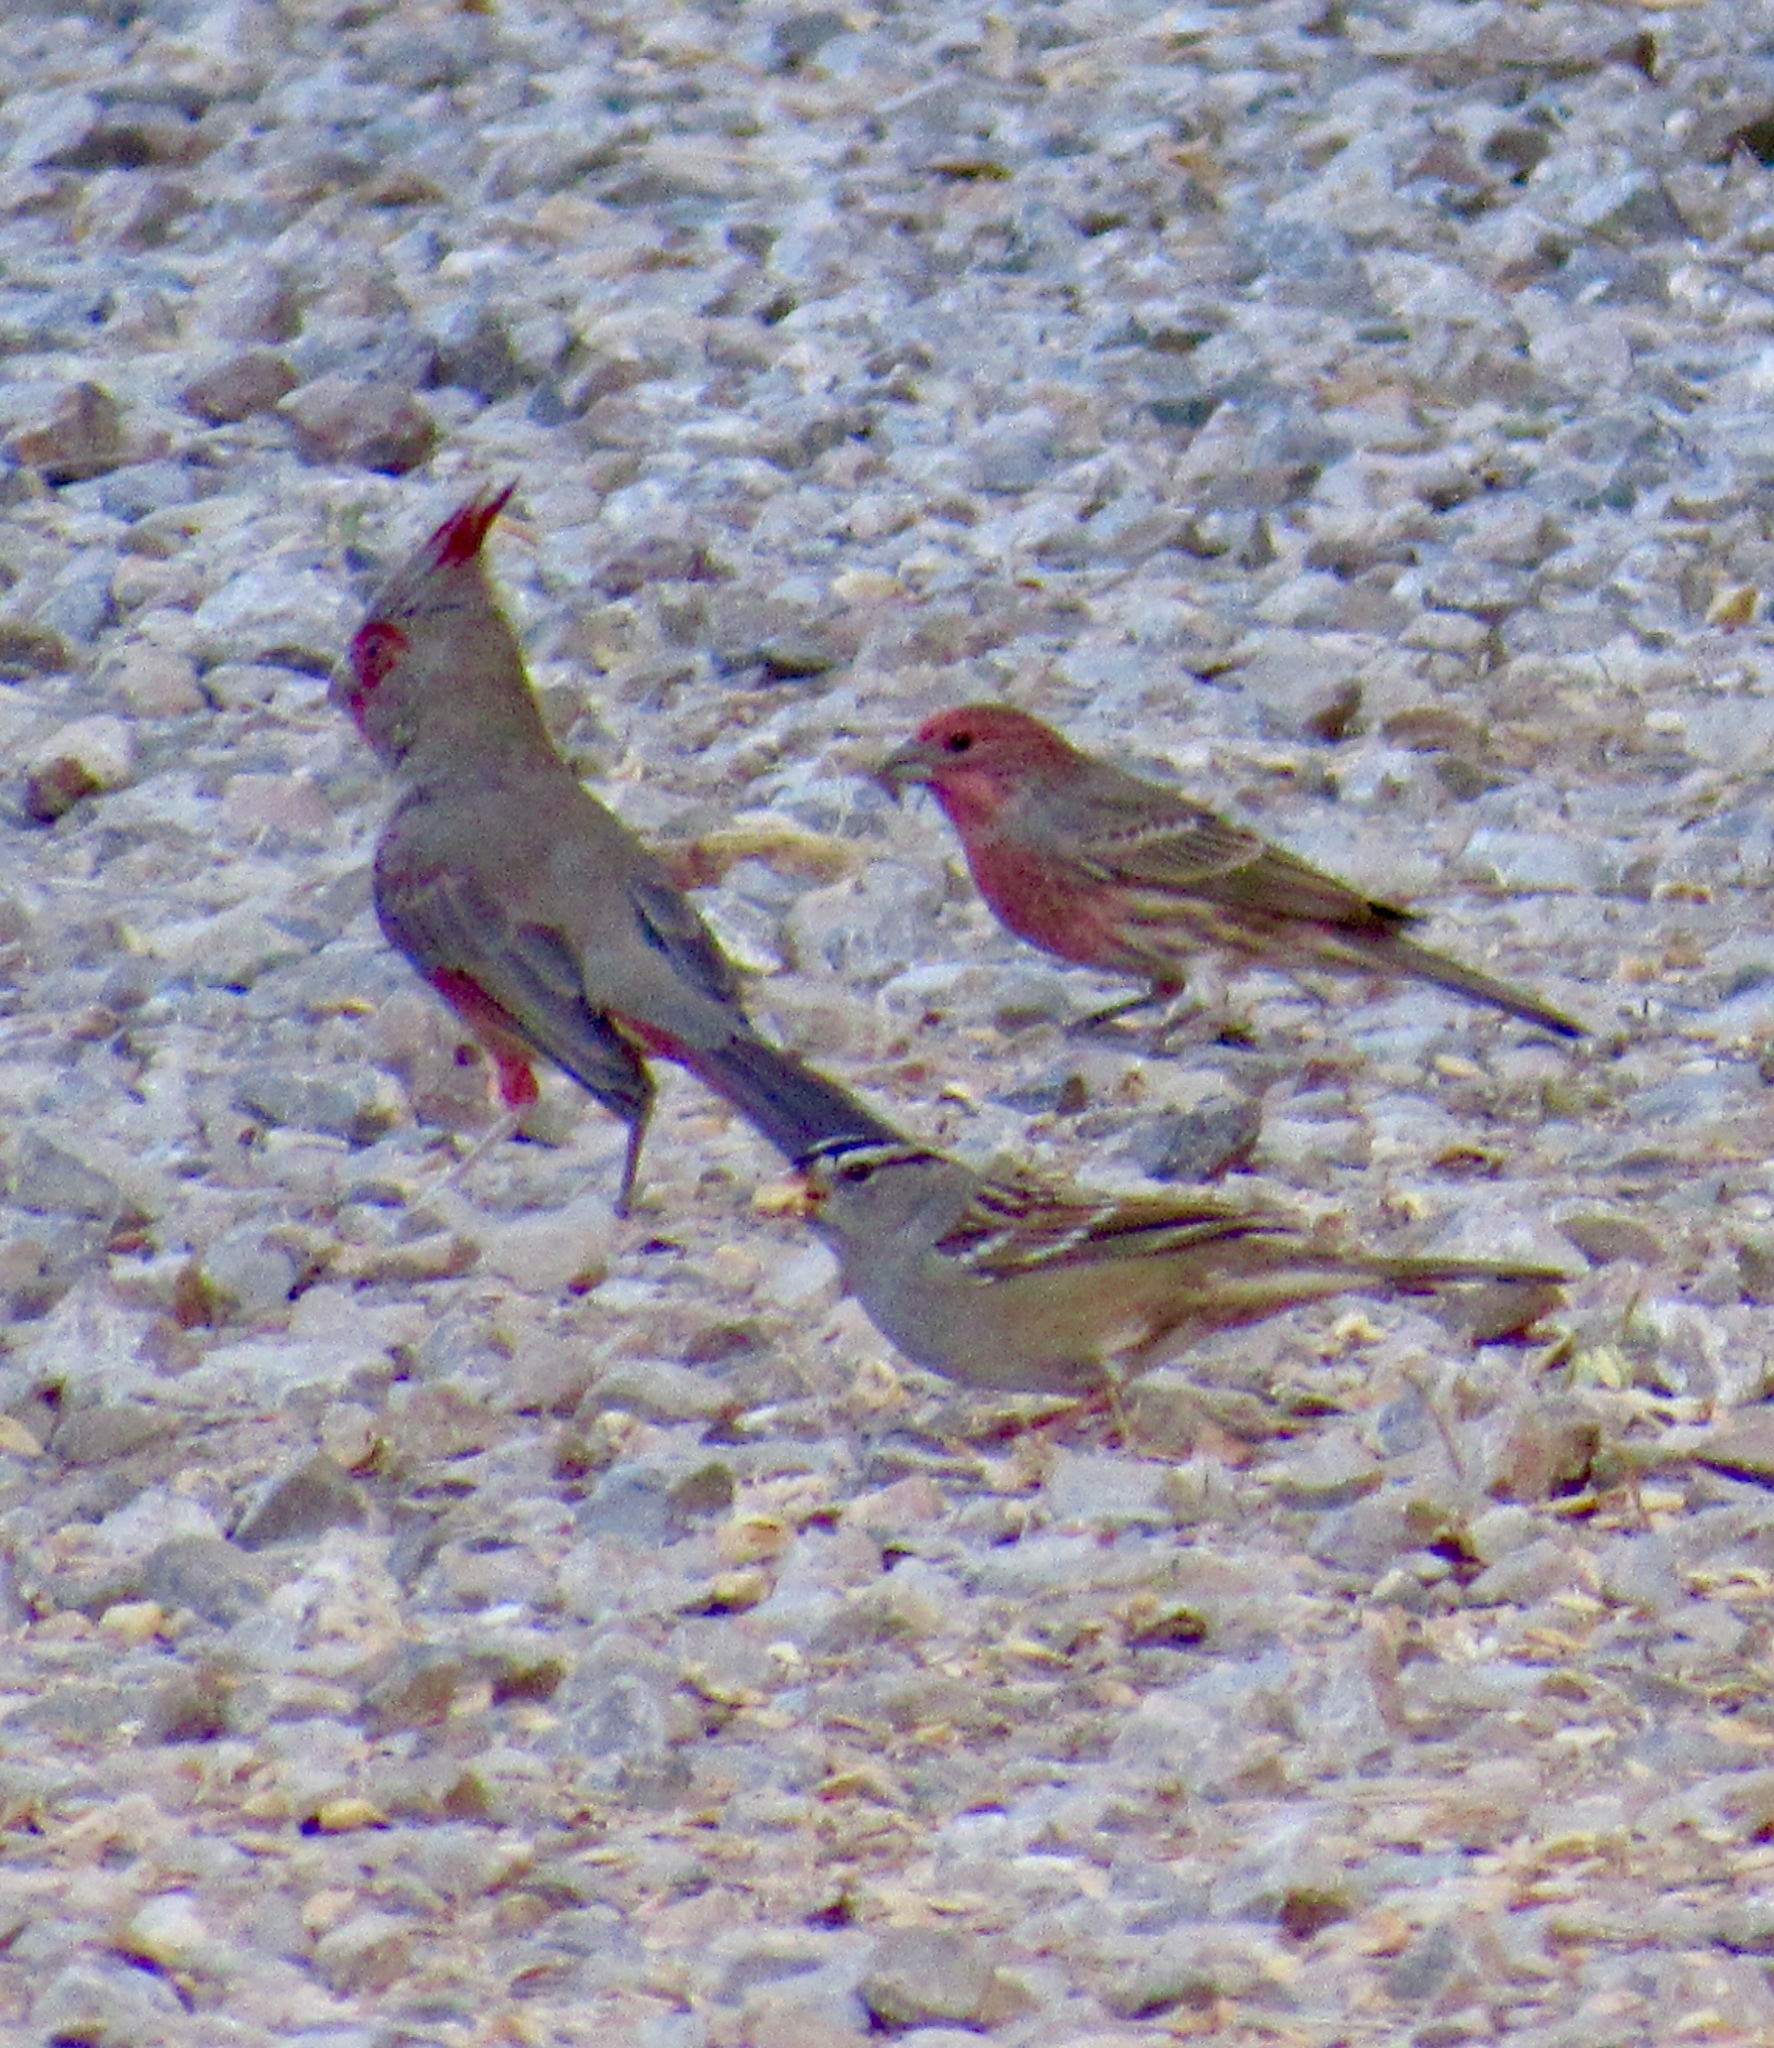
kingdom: Animalia
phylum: Chordata
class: Aves
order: Passeriformes
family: Cardinalidae
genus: Cardinalis
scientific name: Cardinalis sinuatus
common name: Pyrrhuloxia
